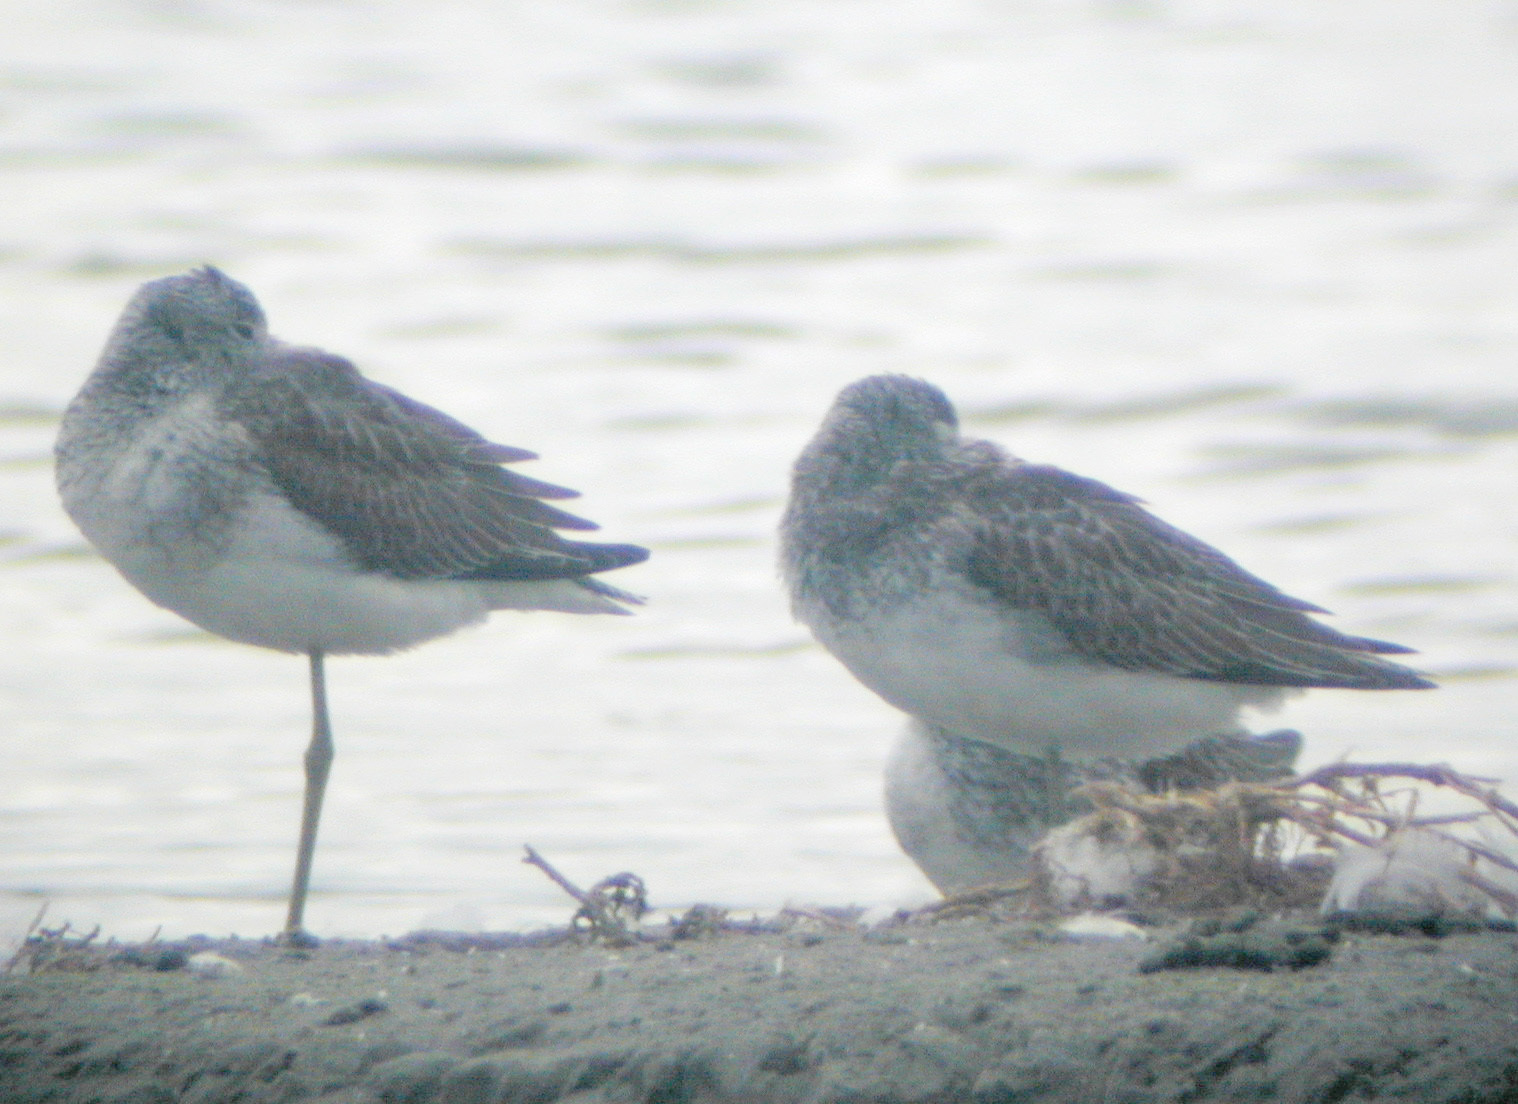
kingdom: Animalia
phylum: Chordata
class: Aves
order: Charadriiformes
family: Scolopacidae
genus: Tringa
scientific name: Tringa nebularia
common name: Common greenshank
